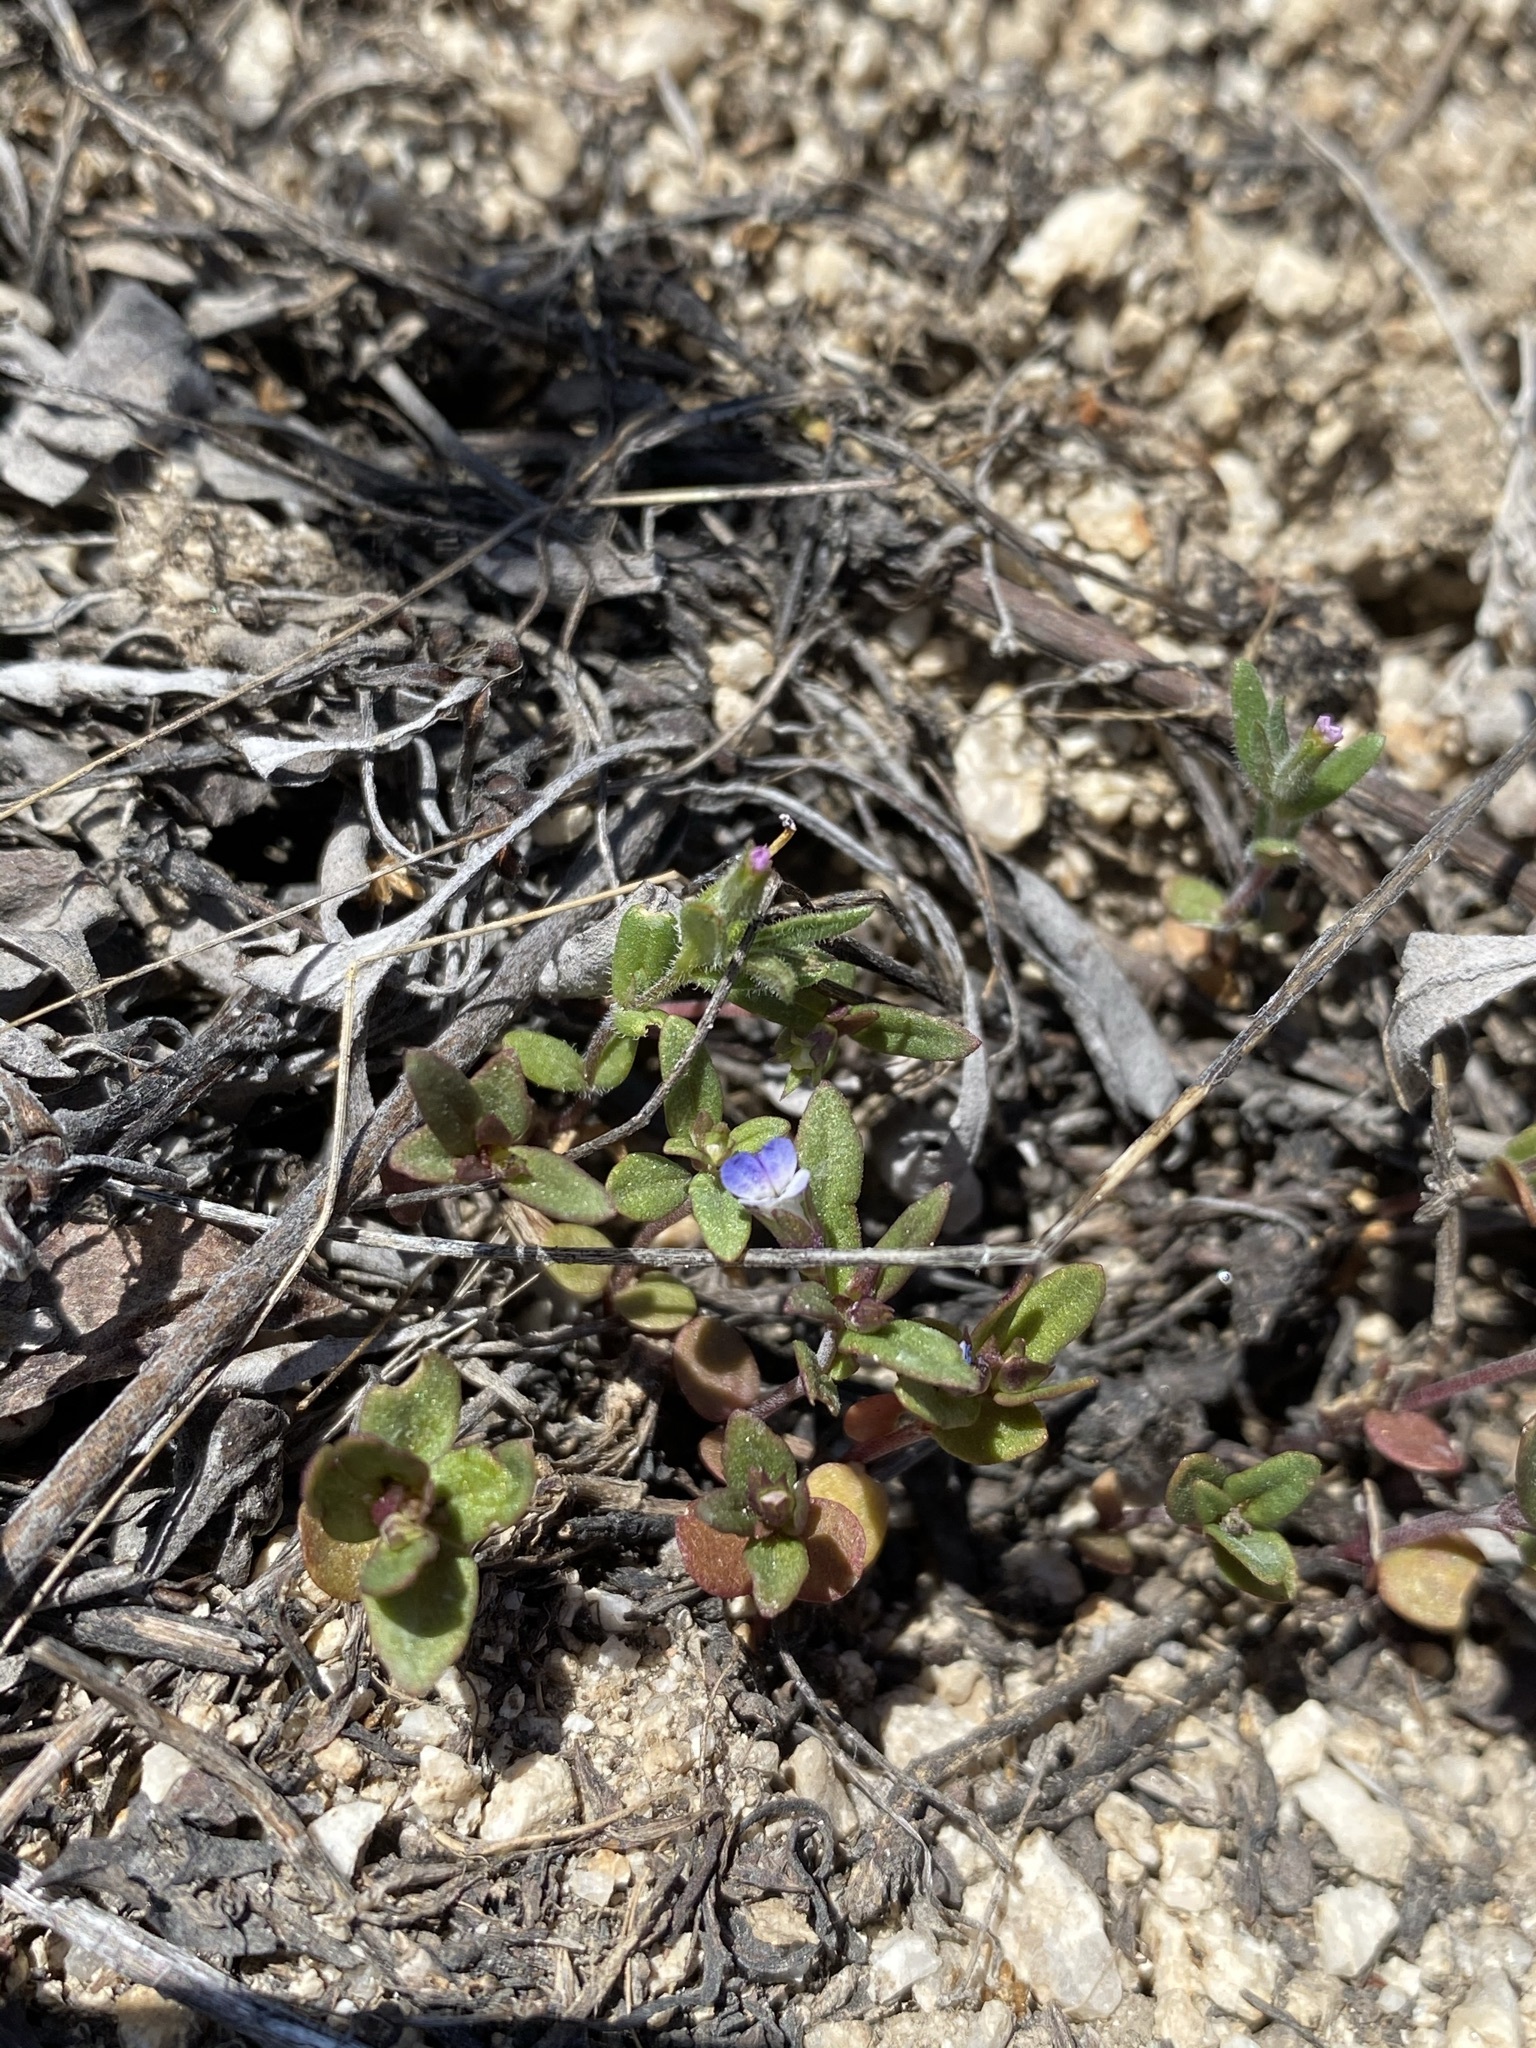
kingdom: Plantae
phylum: Tracheophyta
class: Magnoliopsida
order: Lamiales
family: Plantaginaceae
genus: Collinsia
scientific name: Collinsia parviflora
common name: Blue-lips
